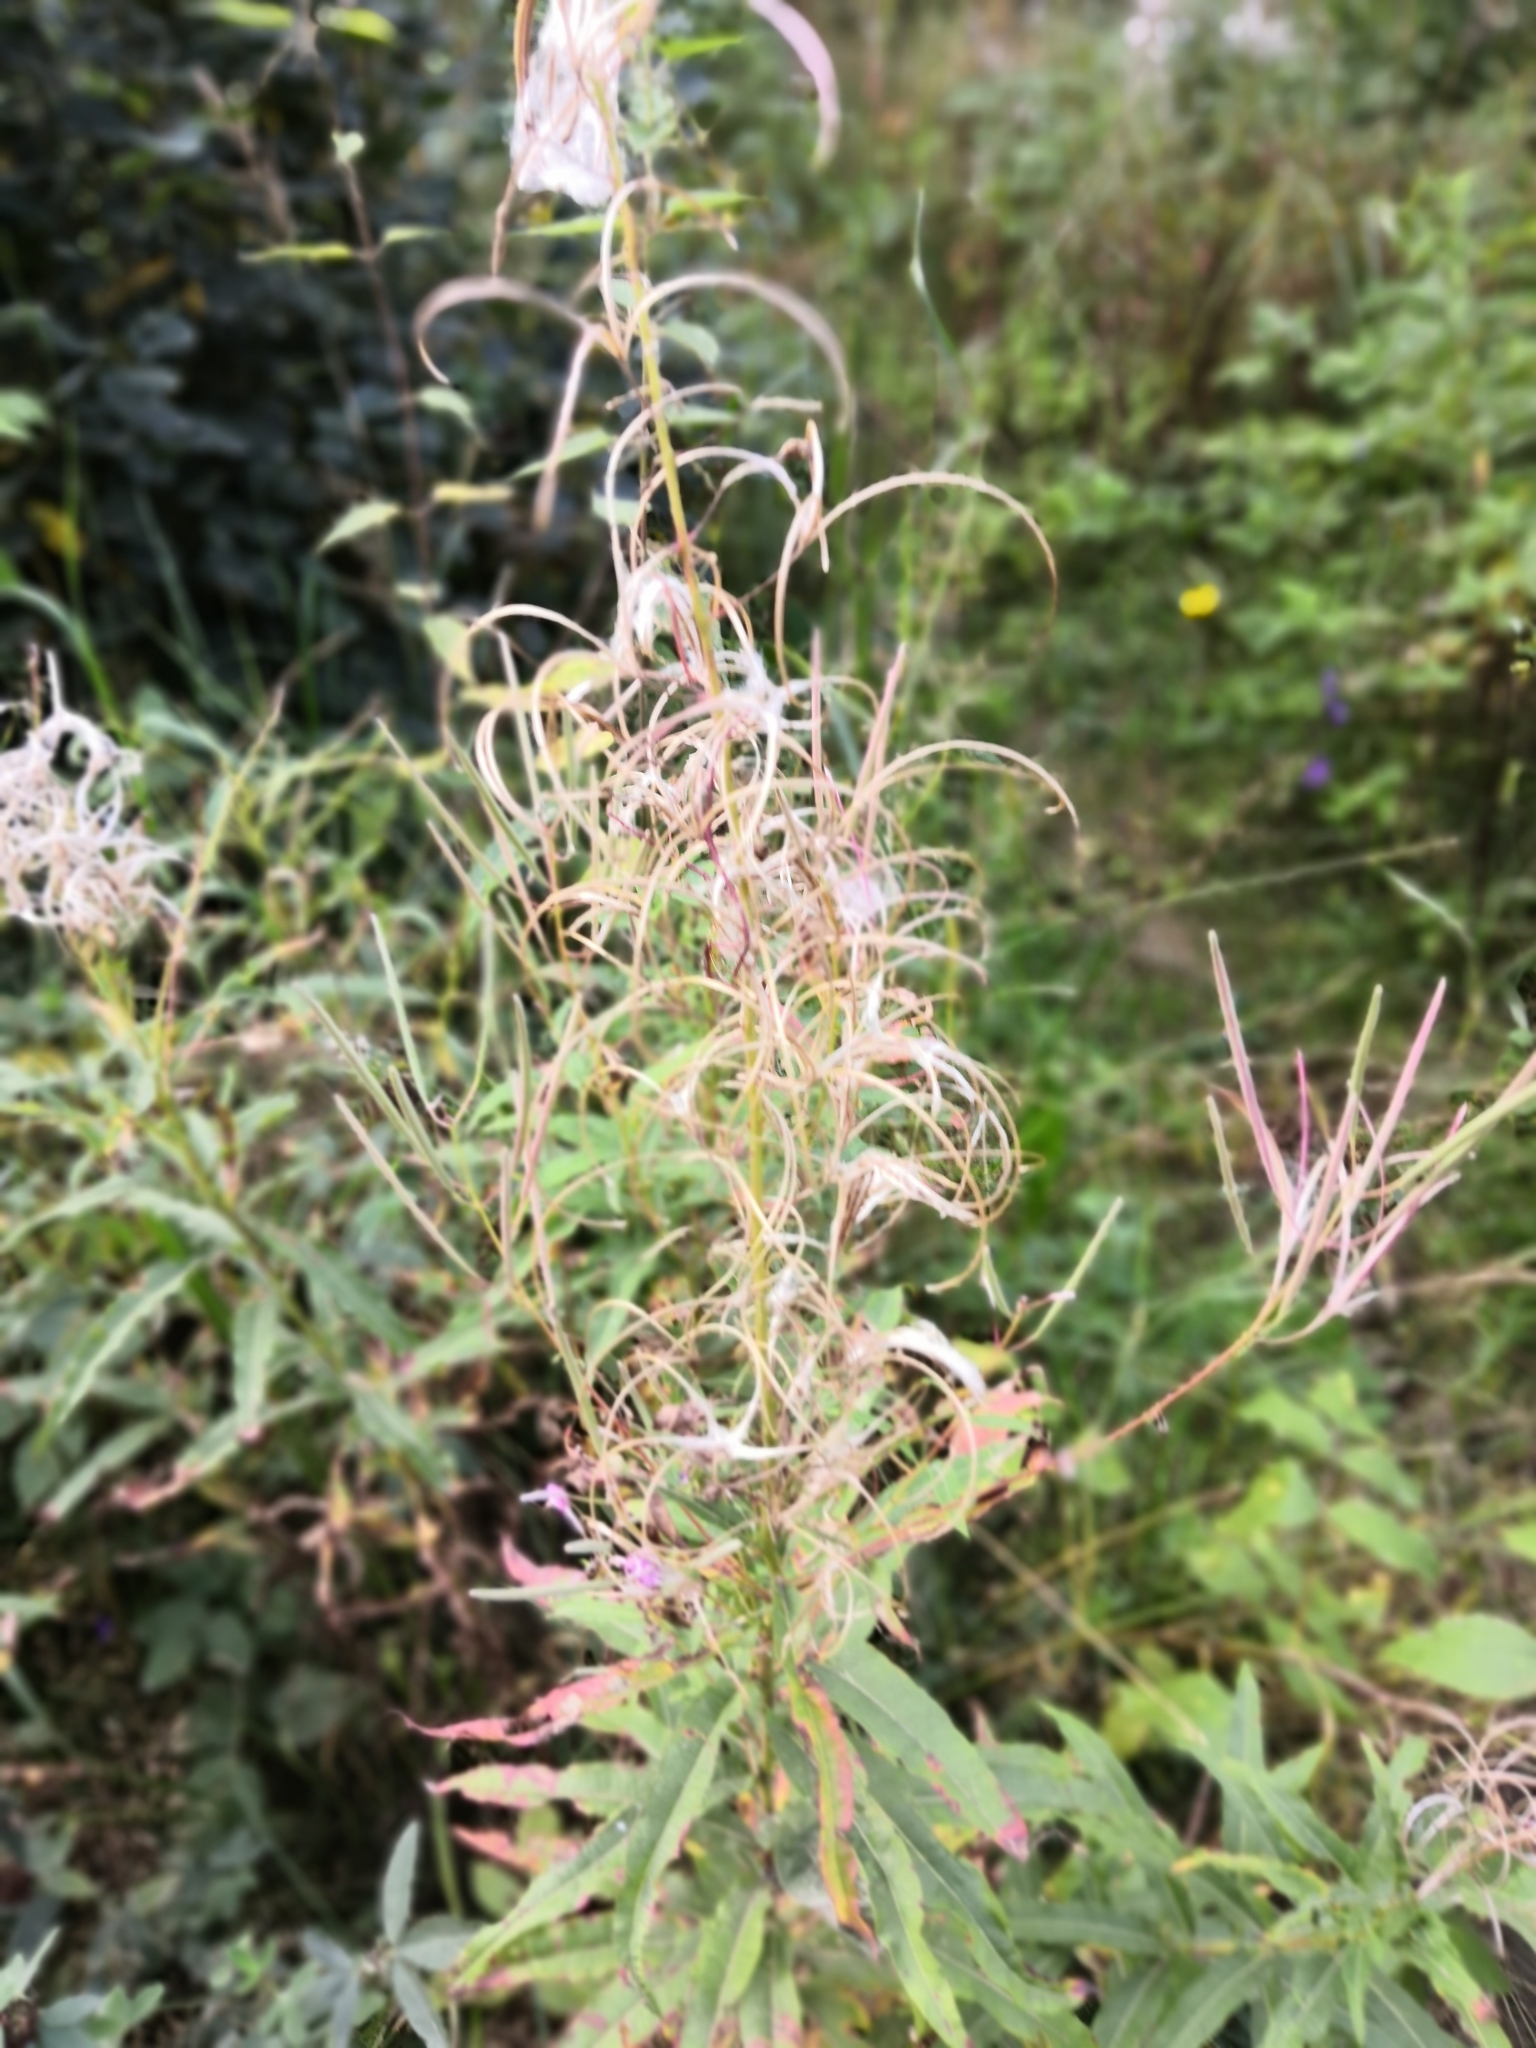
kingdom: Plantae
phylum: Tracheophyta
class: Magnoliopsida
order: Myrtales
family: Onagraceae
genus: Chamaenerion
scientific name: Chamaenerion angustifolium
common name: Fireweed
